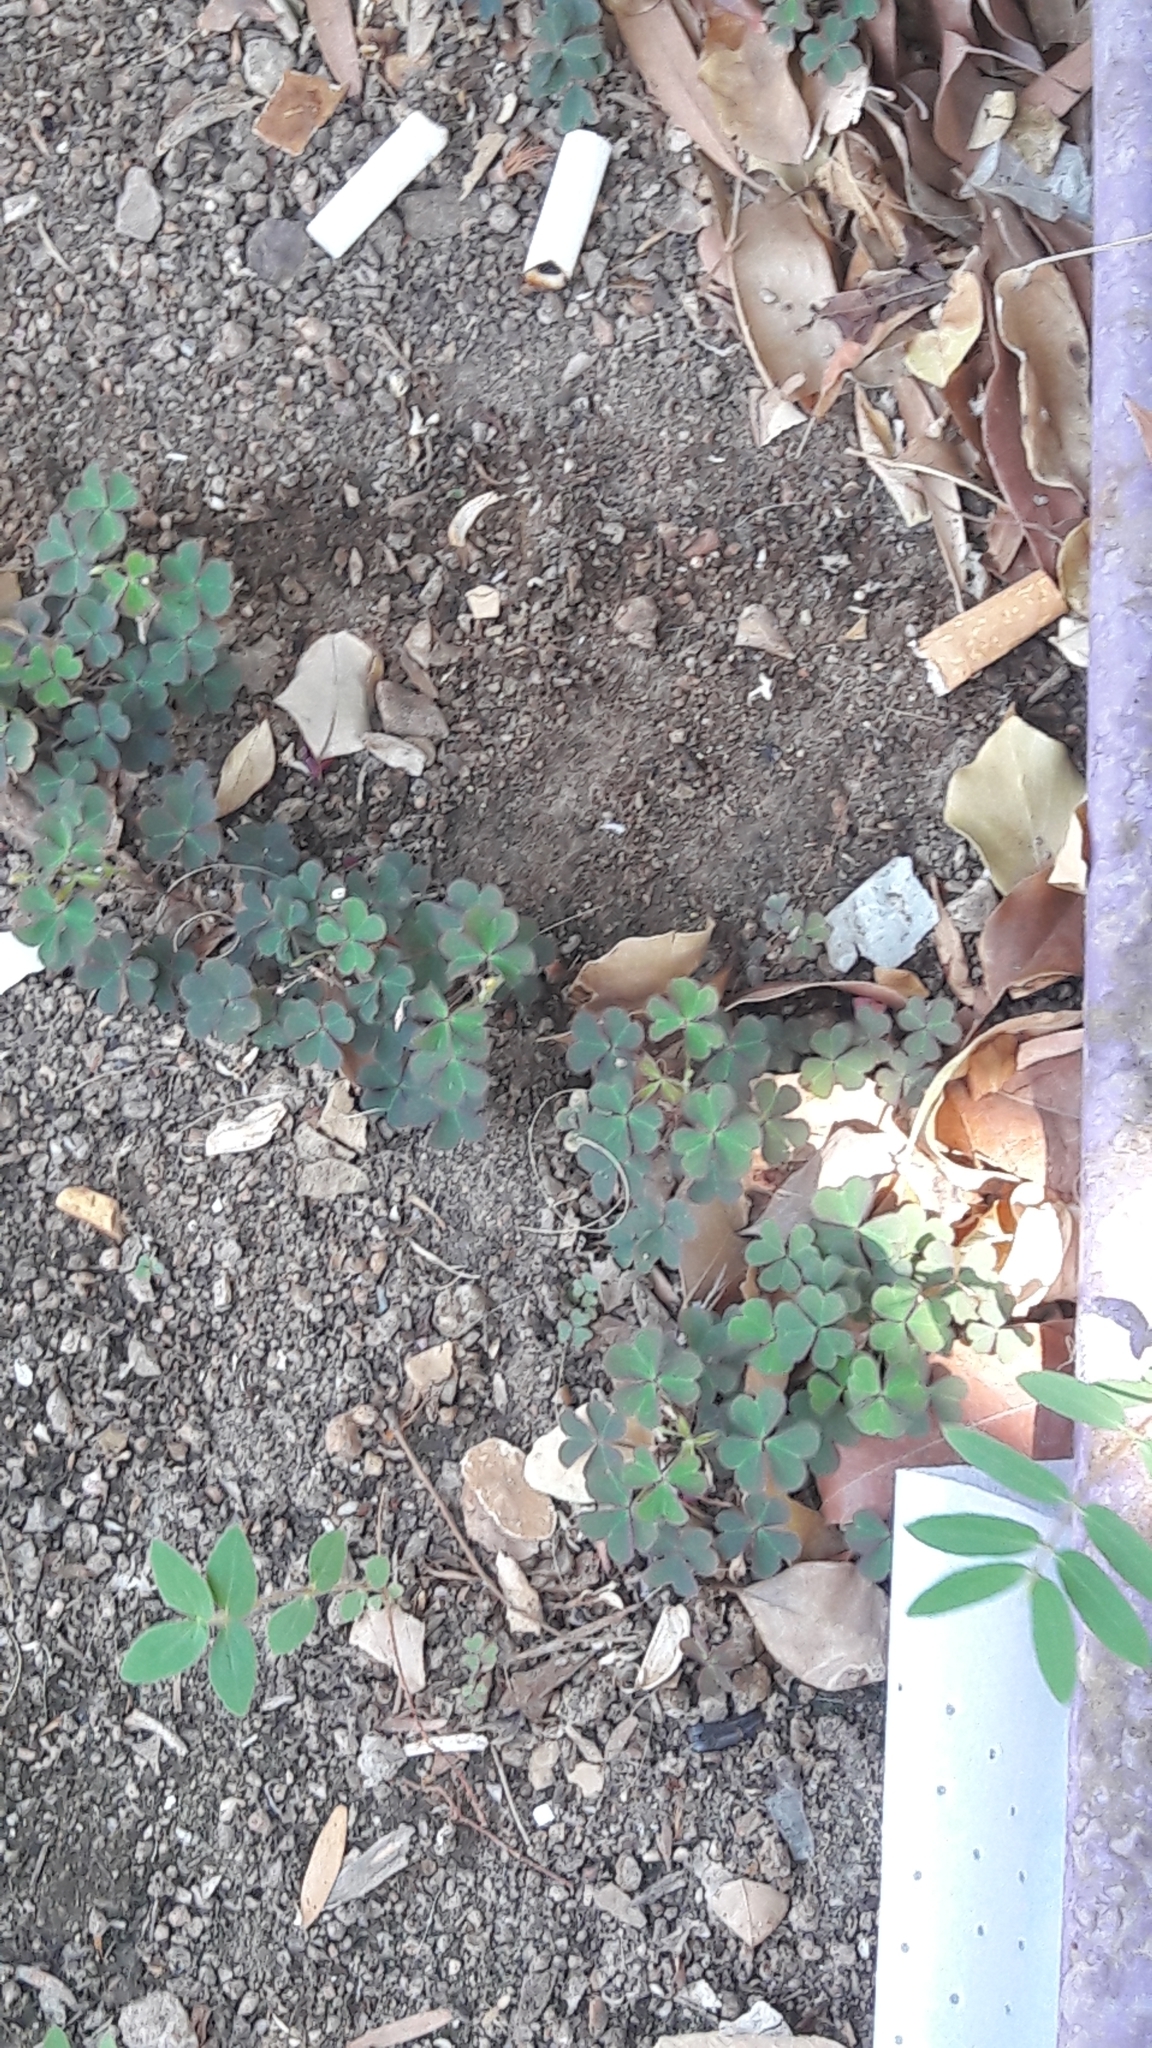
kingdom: Plantae
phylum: Tracheophyta
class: Magnoliopsida
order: Oxalidales
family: Oxalidaceae
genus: Oxalis
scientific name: Oxalis corniculata
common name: Procumbent yellow-sorrel
